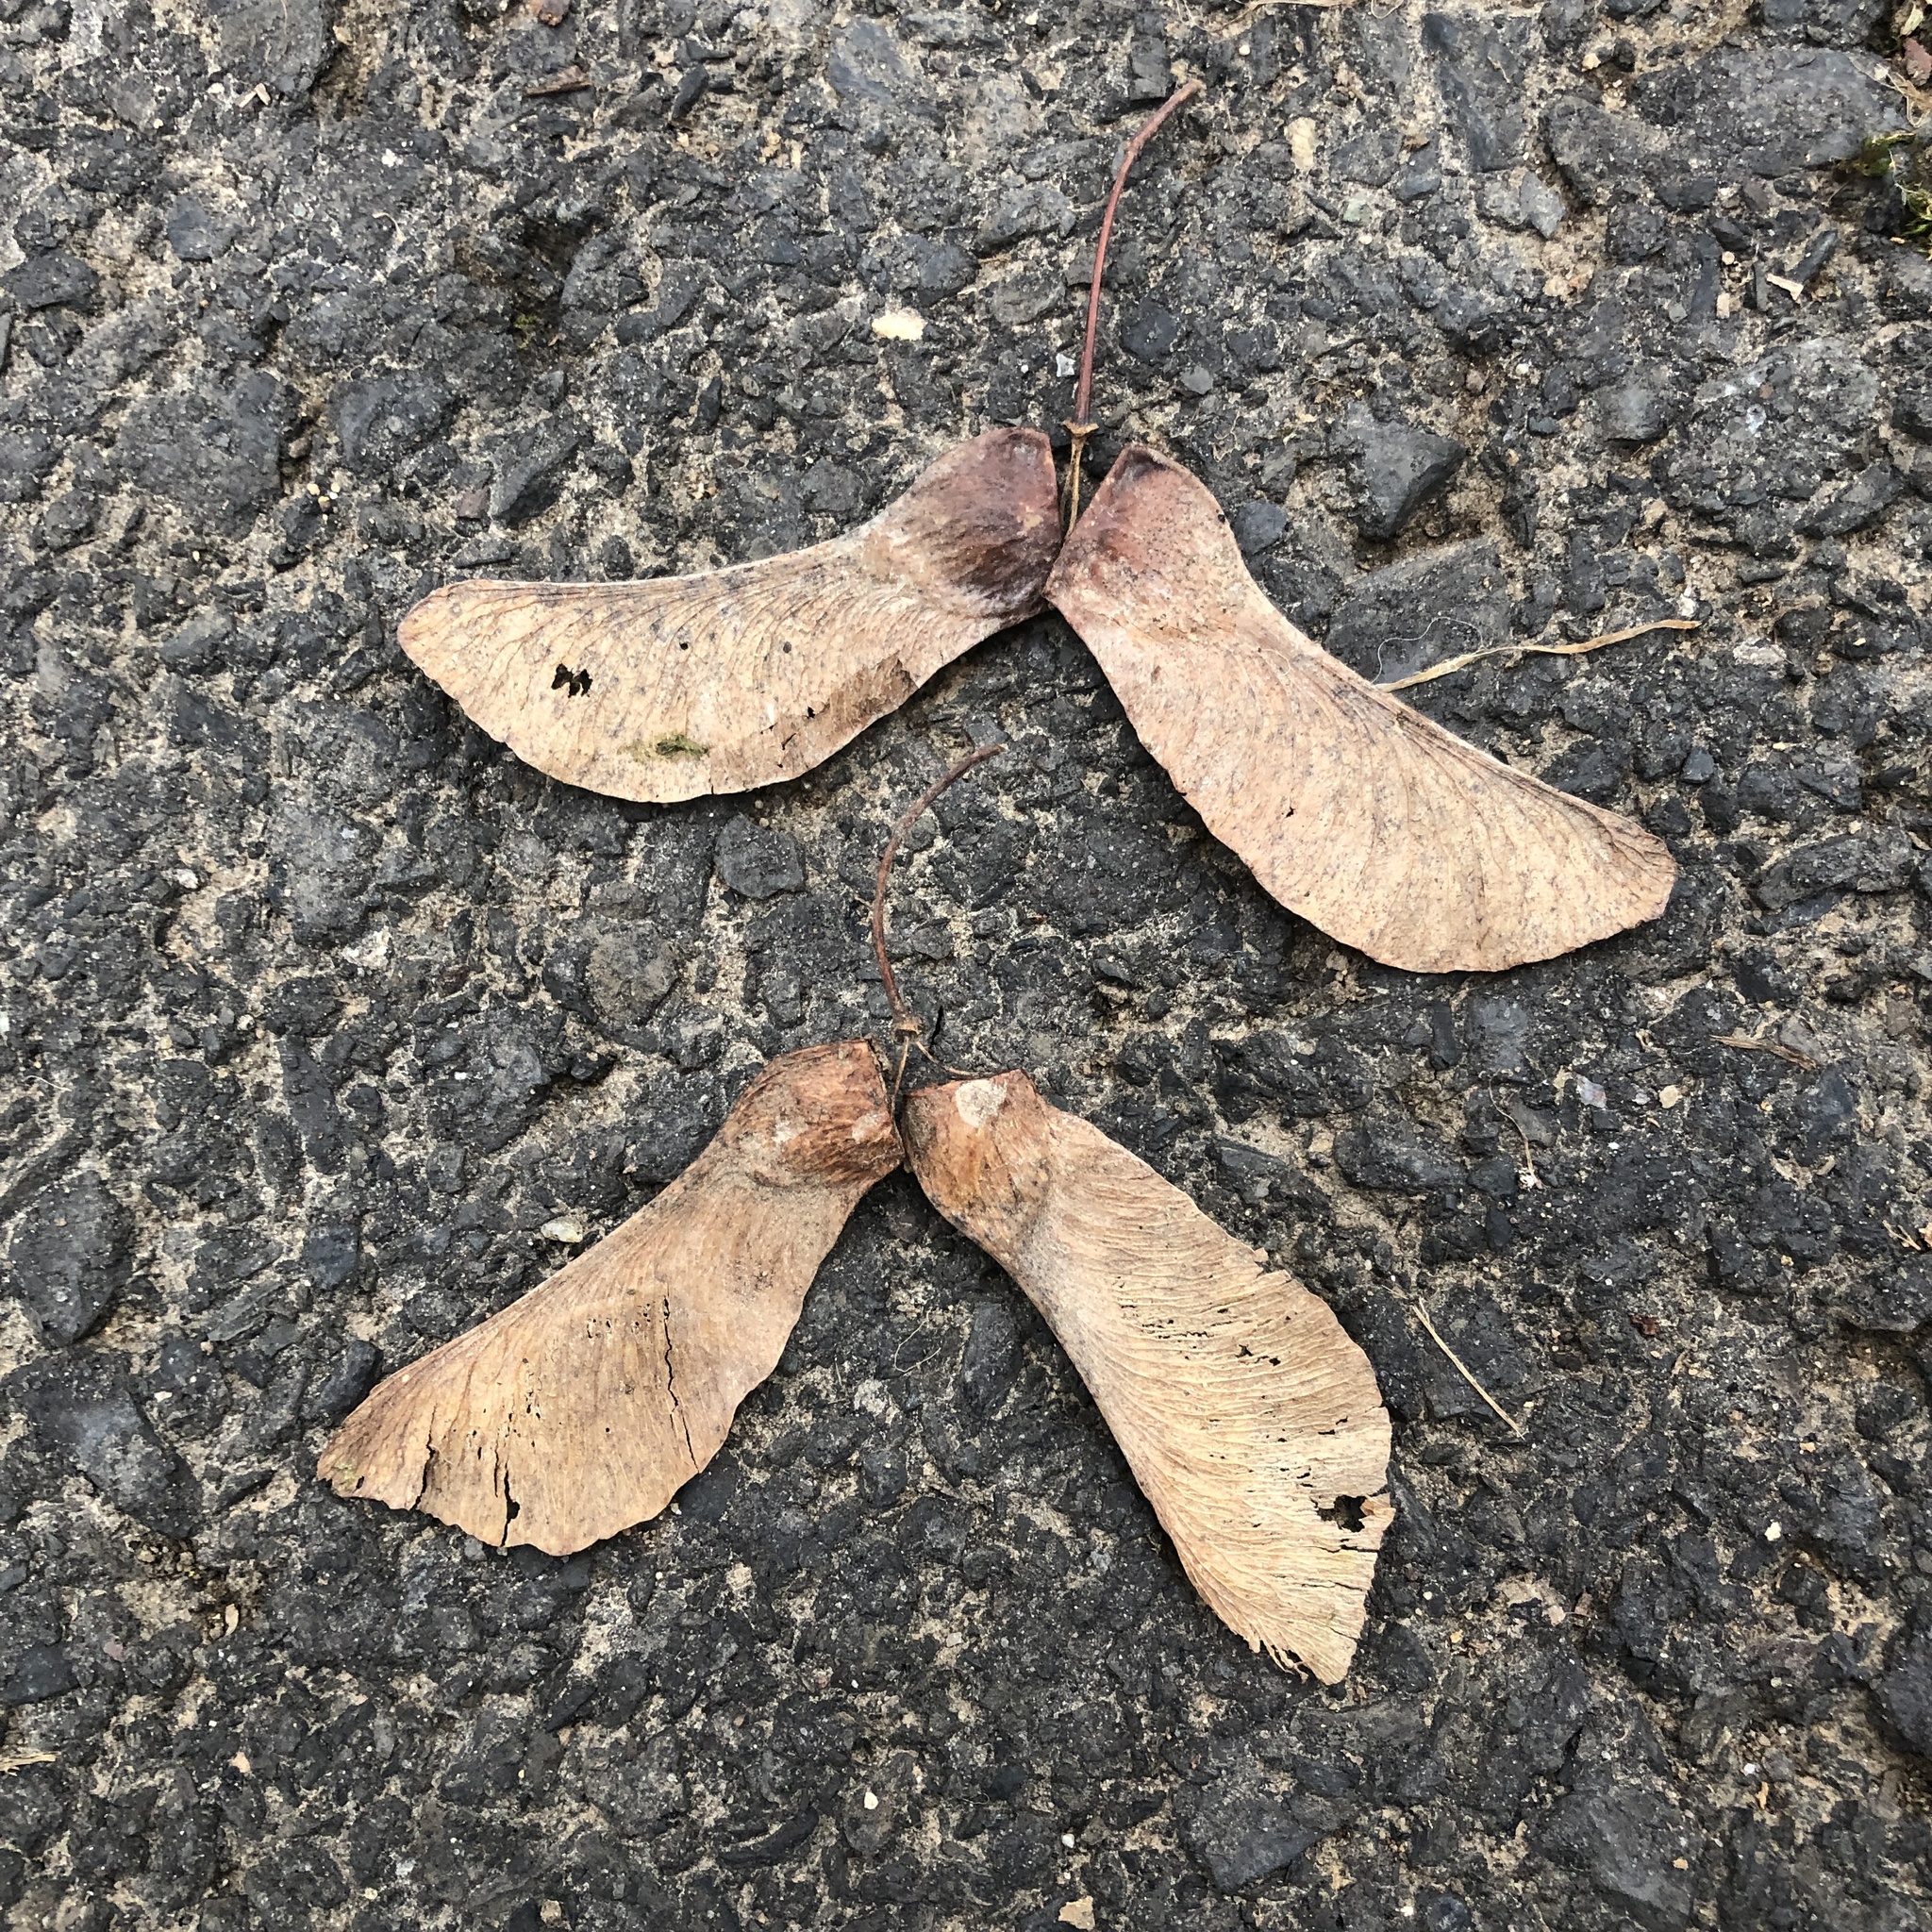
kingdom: Plantae
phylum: Tracheophyta
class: Magnoliopsida
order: Sapindales
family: Sapindaceae
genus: Acer
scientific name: Acer platanoides
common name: Norway maple
